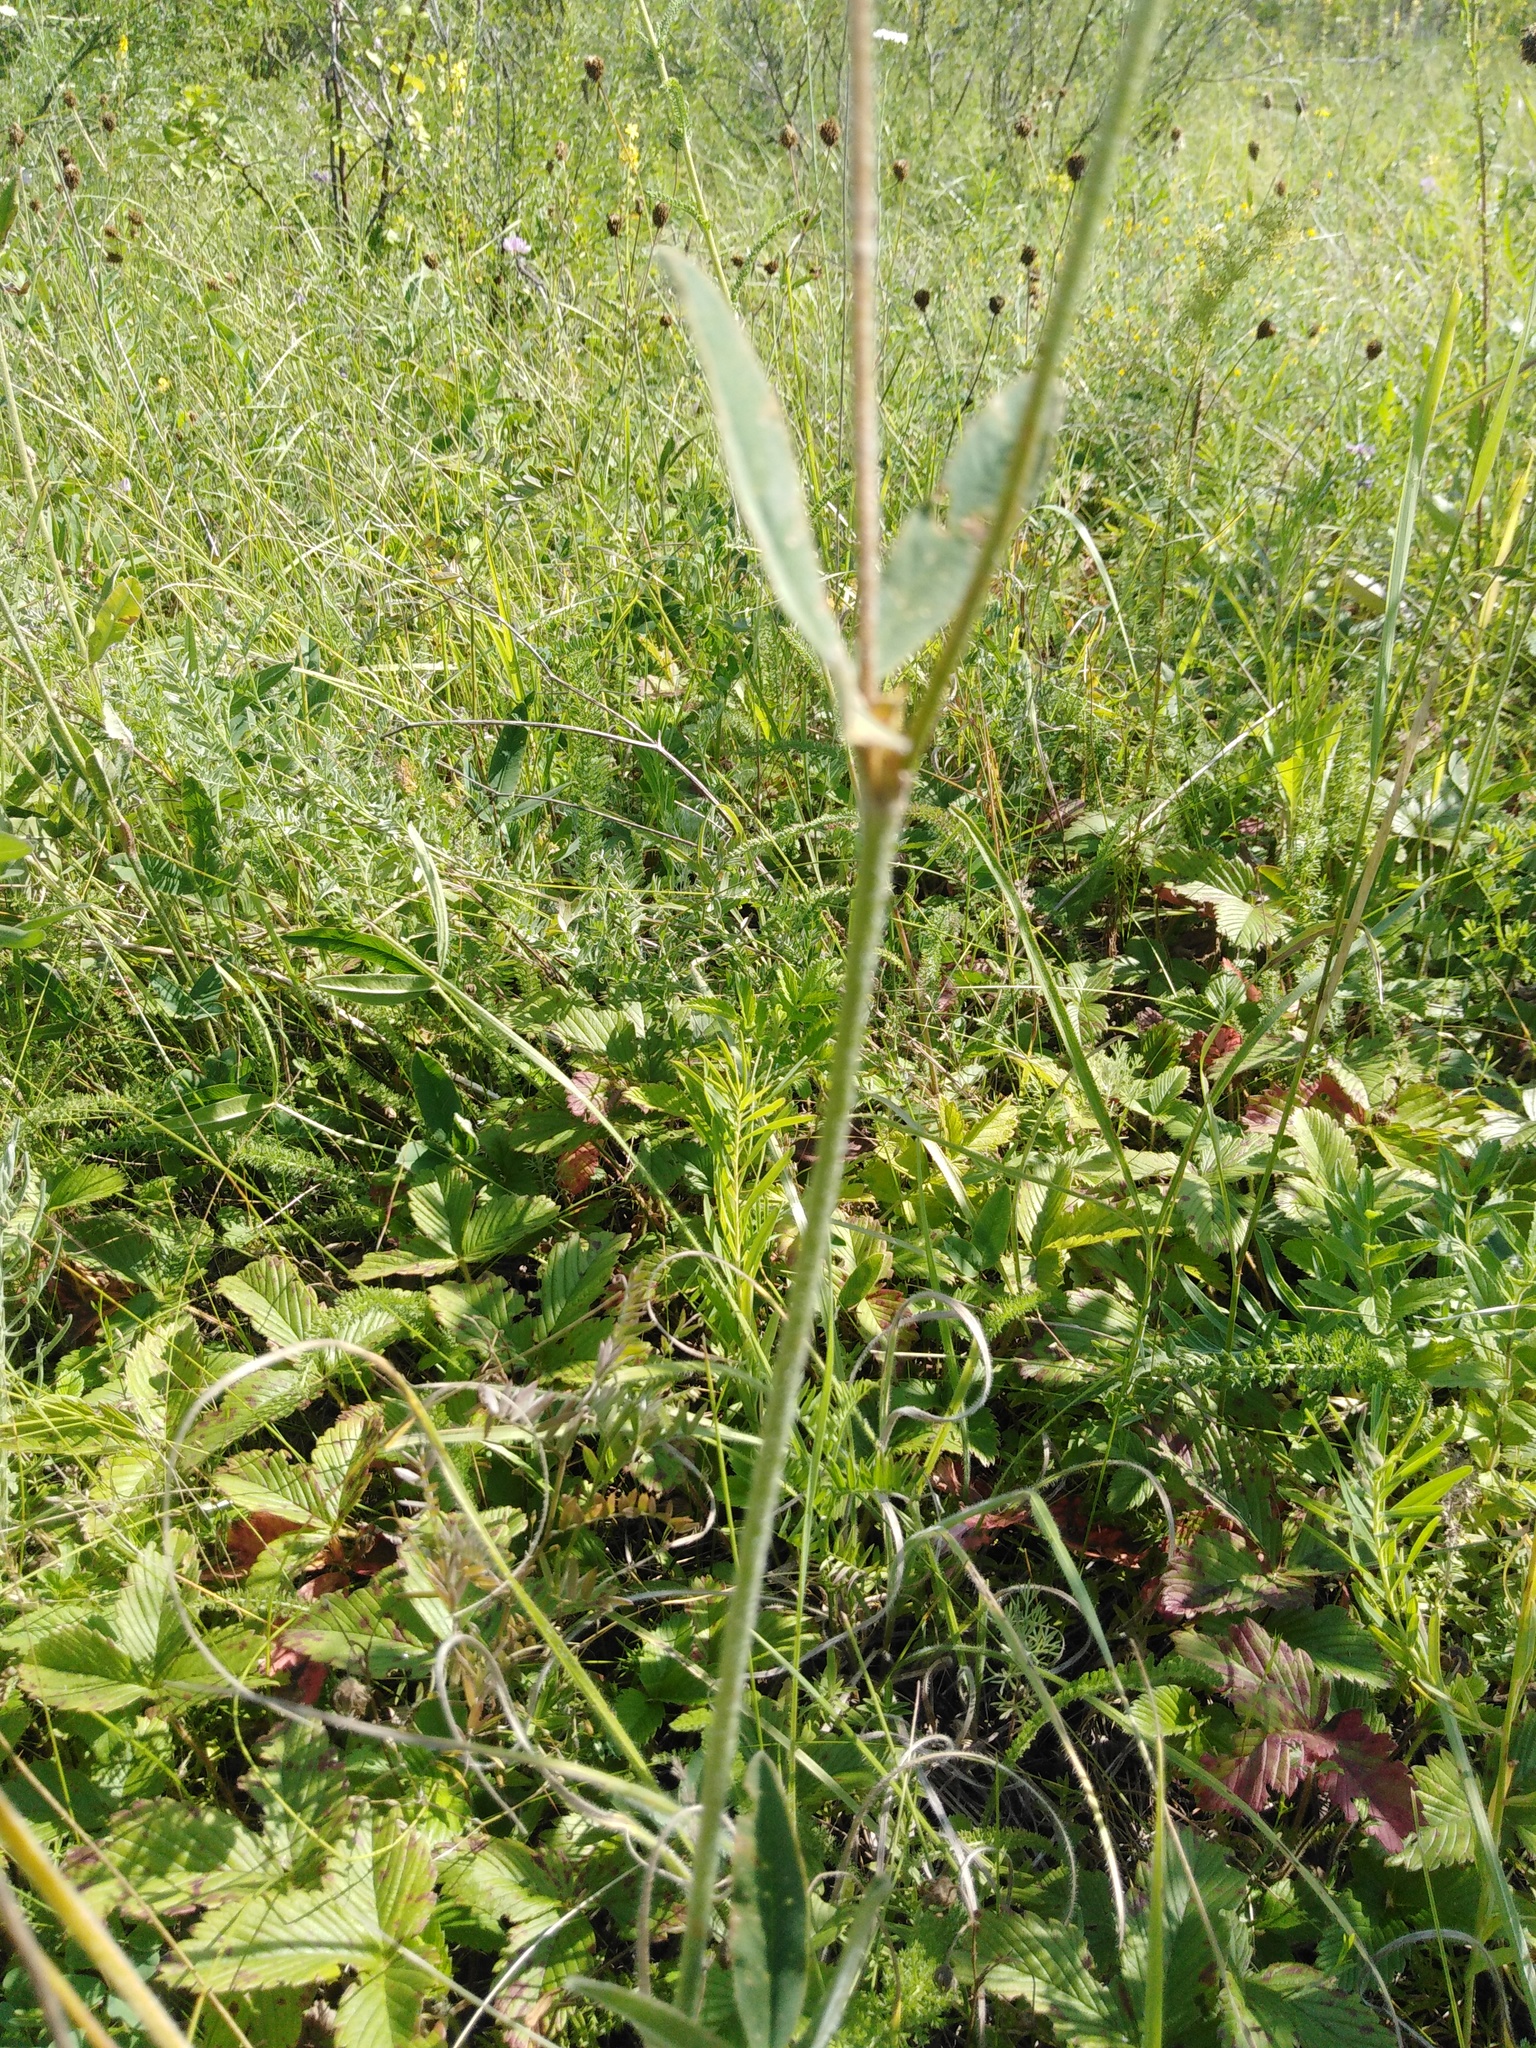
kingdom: Plantae
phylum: Tracheophyta
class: Magnoliopsida
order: Fabales
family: Fabaceae
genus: Trifolium
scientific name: Trifolium montanum
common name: Mountain clover
